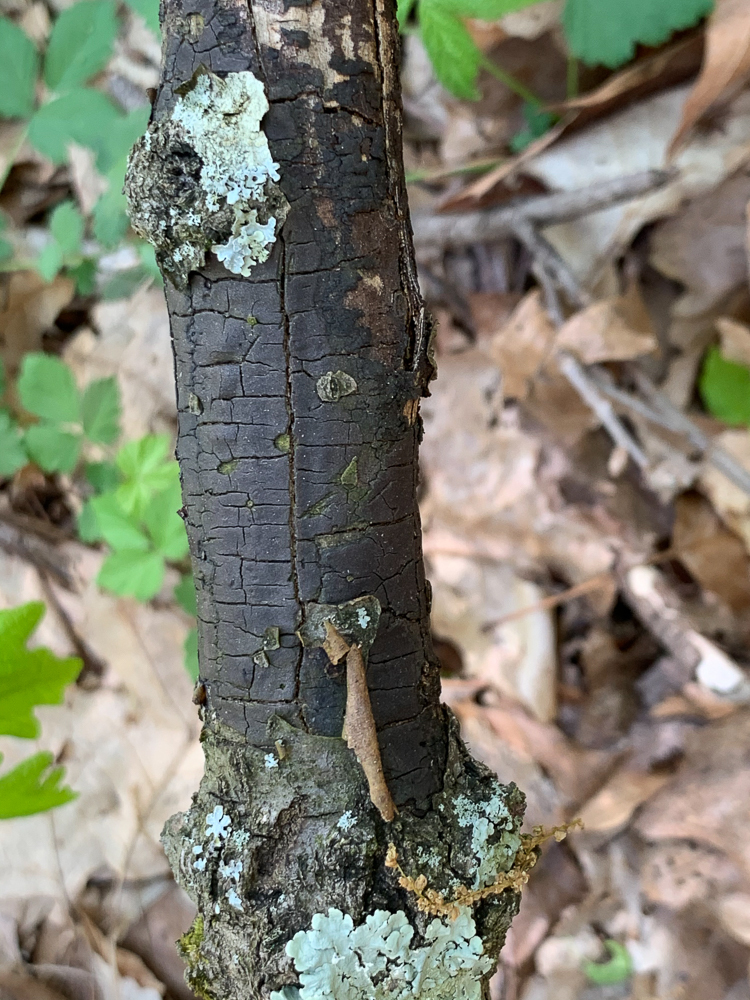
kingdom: Fungi
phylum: Ascomycota
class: Sordariomycetes
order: Xylariales
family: Diatrypaceae
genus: Diatrype
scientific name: Diatrype stigma
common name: Common tarcrust
